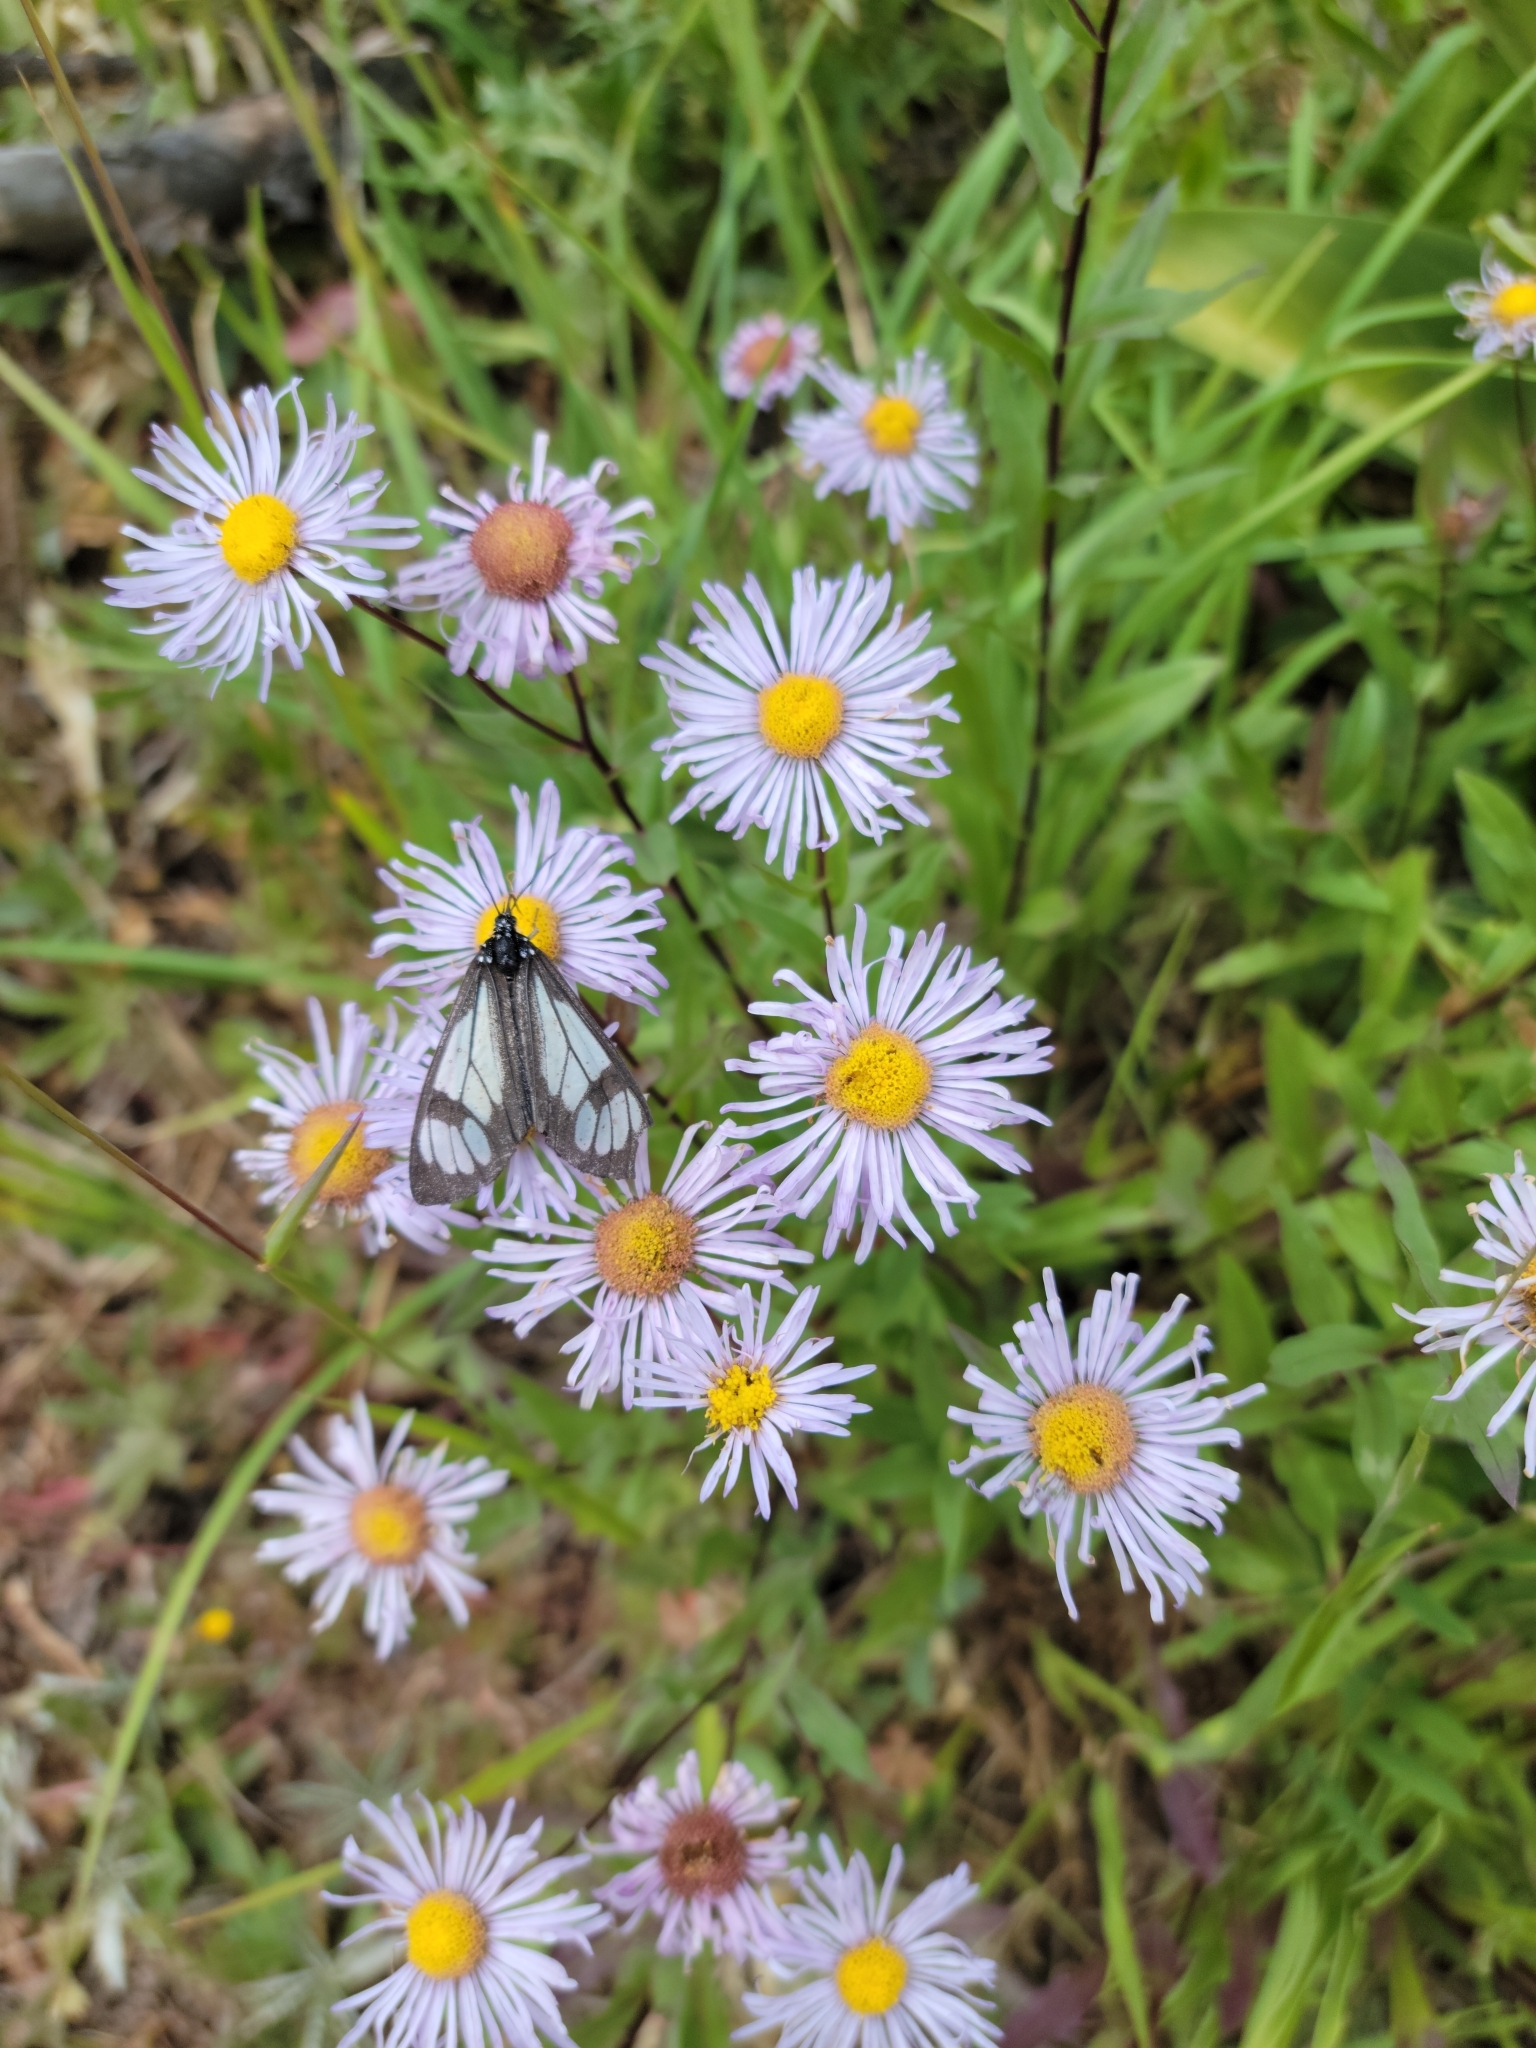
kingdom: Animalia
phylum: Arthropoda
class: Insecta
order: Lepidoptera
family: Erebidae
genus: Gnophaela
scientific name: Gnophaela vermiculata
